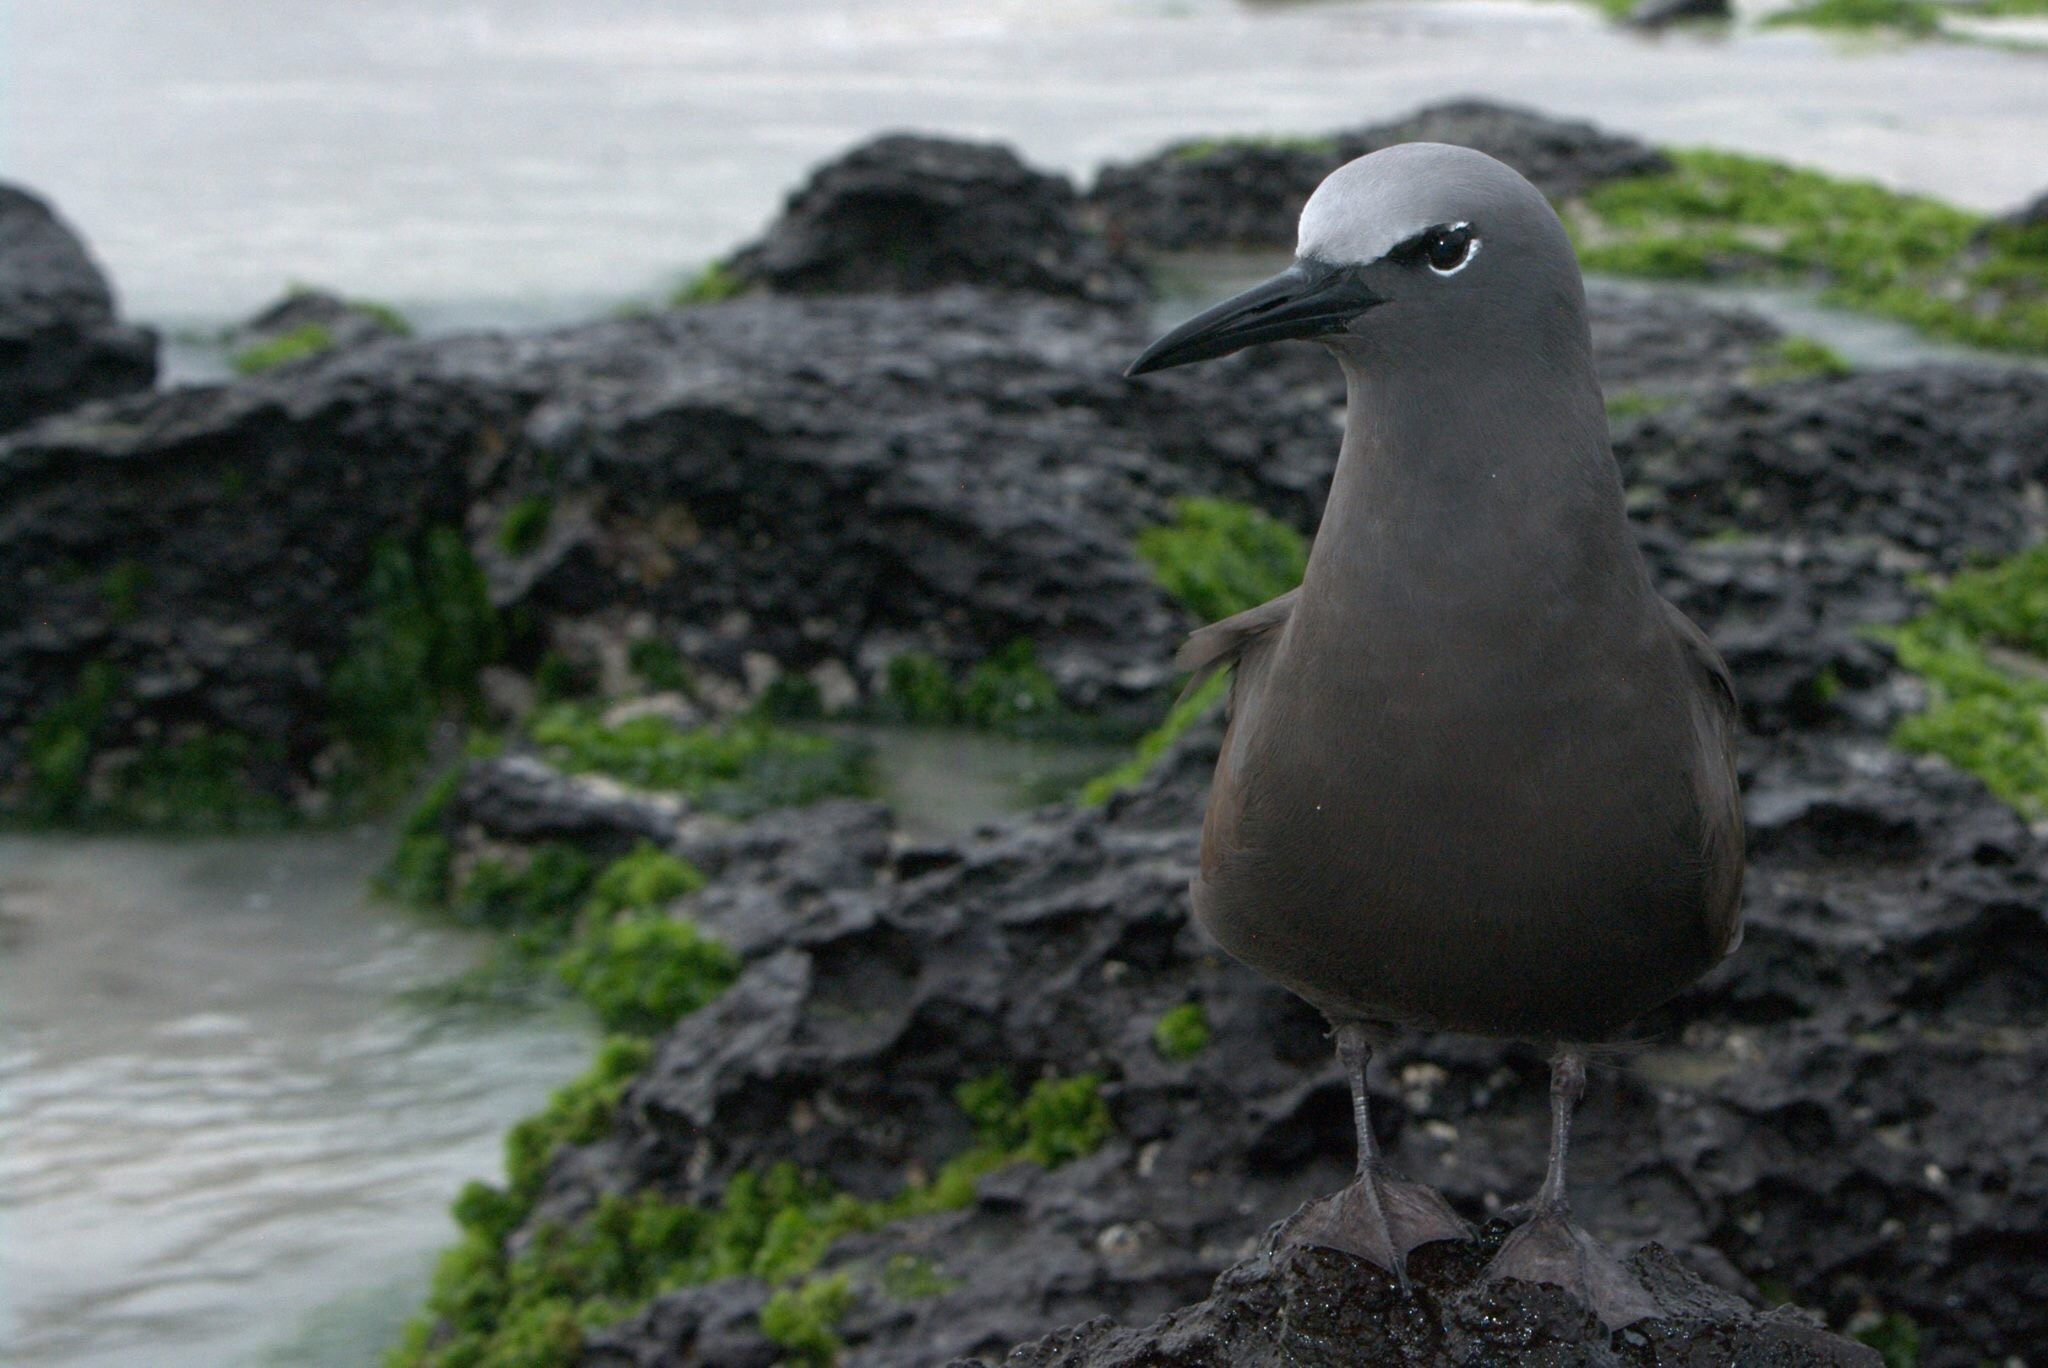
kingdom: Animalia
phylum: Chordata
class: Aves
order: Charadriiformes
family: Laridae
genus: Anous
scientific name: Anous stolidus
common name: Brown noddy
